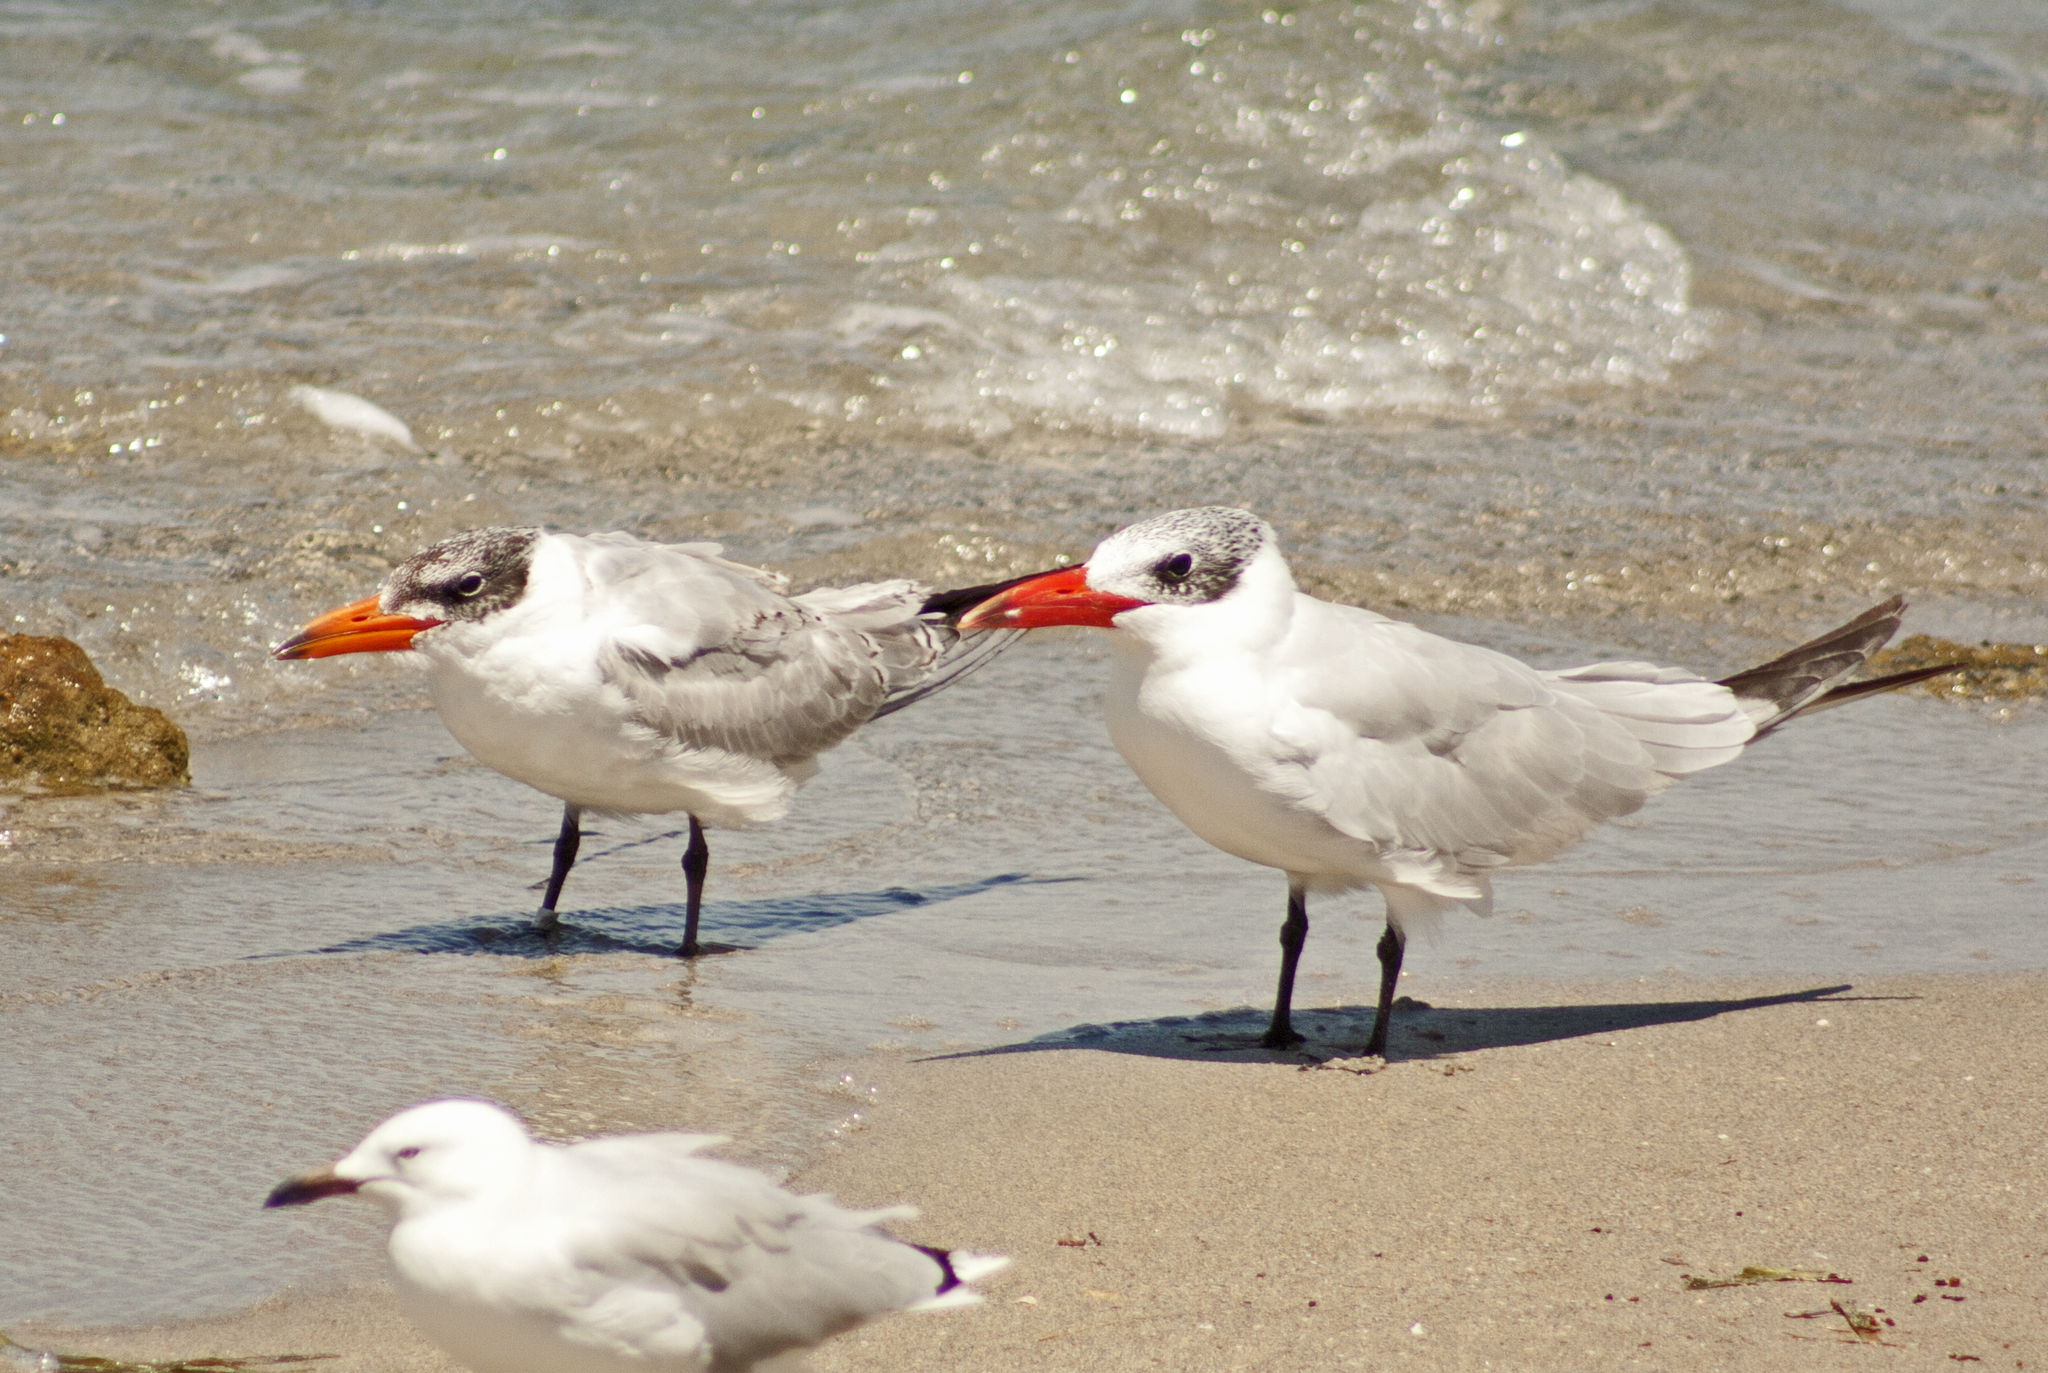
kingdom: Animalia
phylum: Chordata
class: Aves
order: Charadriiformes
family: Laridae
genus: Hydroprogne
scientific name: Hydroprogne caspia
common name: Caspian tern
